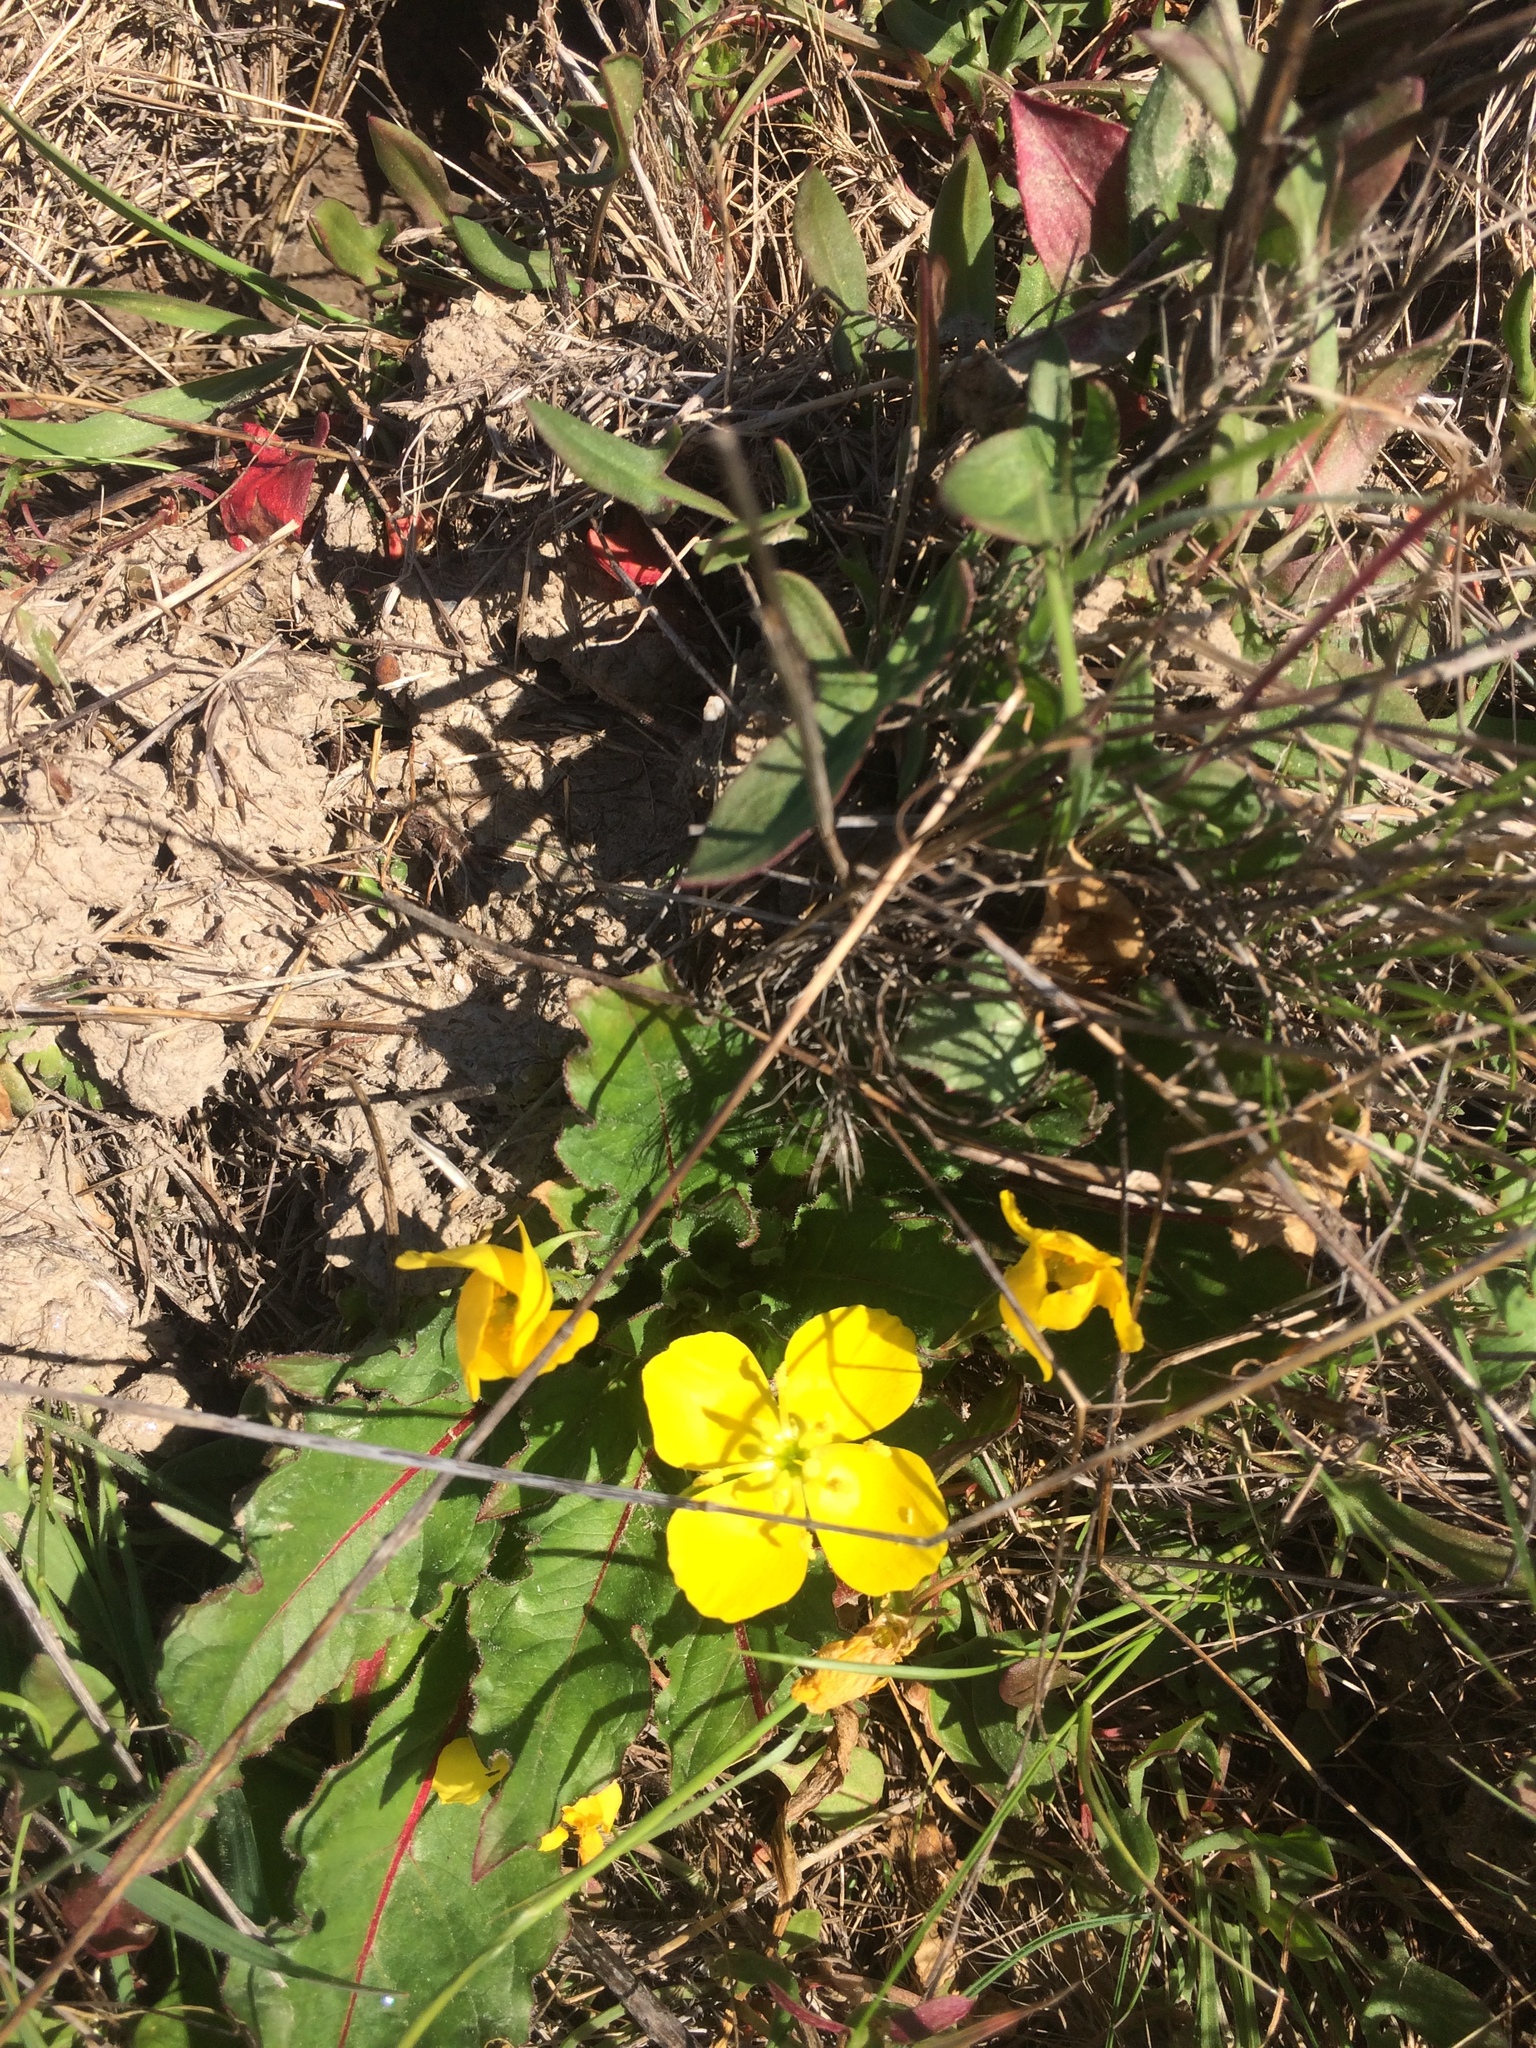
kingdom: Plantae
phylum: Tracheophyta
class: Magnoliopsida
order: Myrtales
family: Onagraceae
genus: Taraxia
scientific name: Taraxia ovata
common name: Goldeneggs
